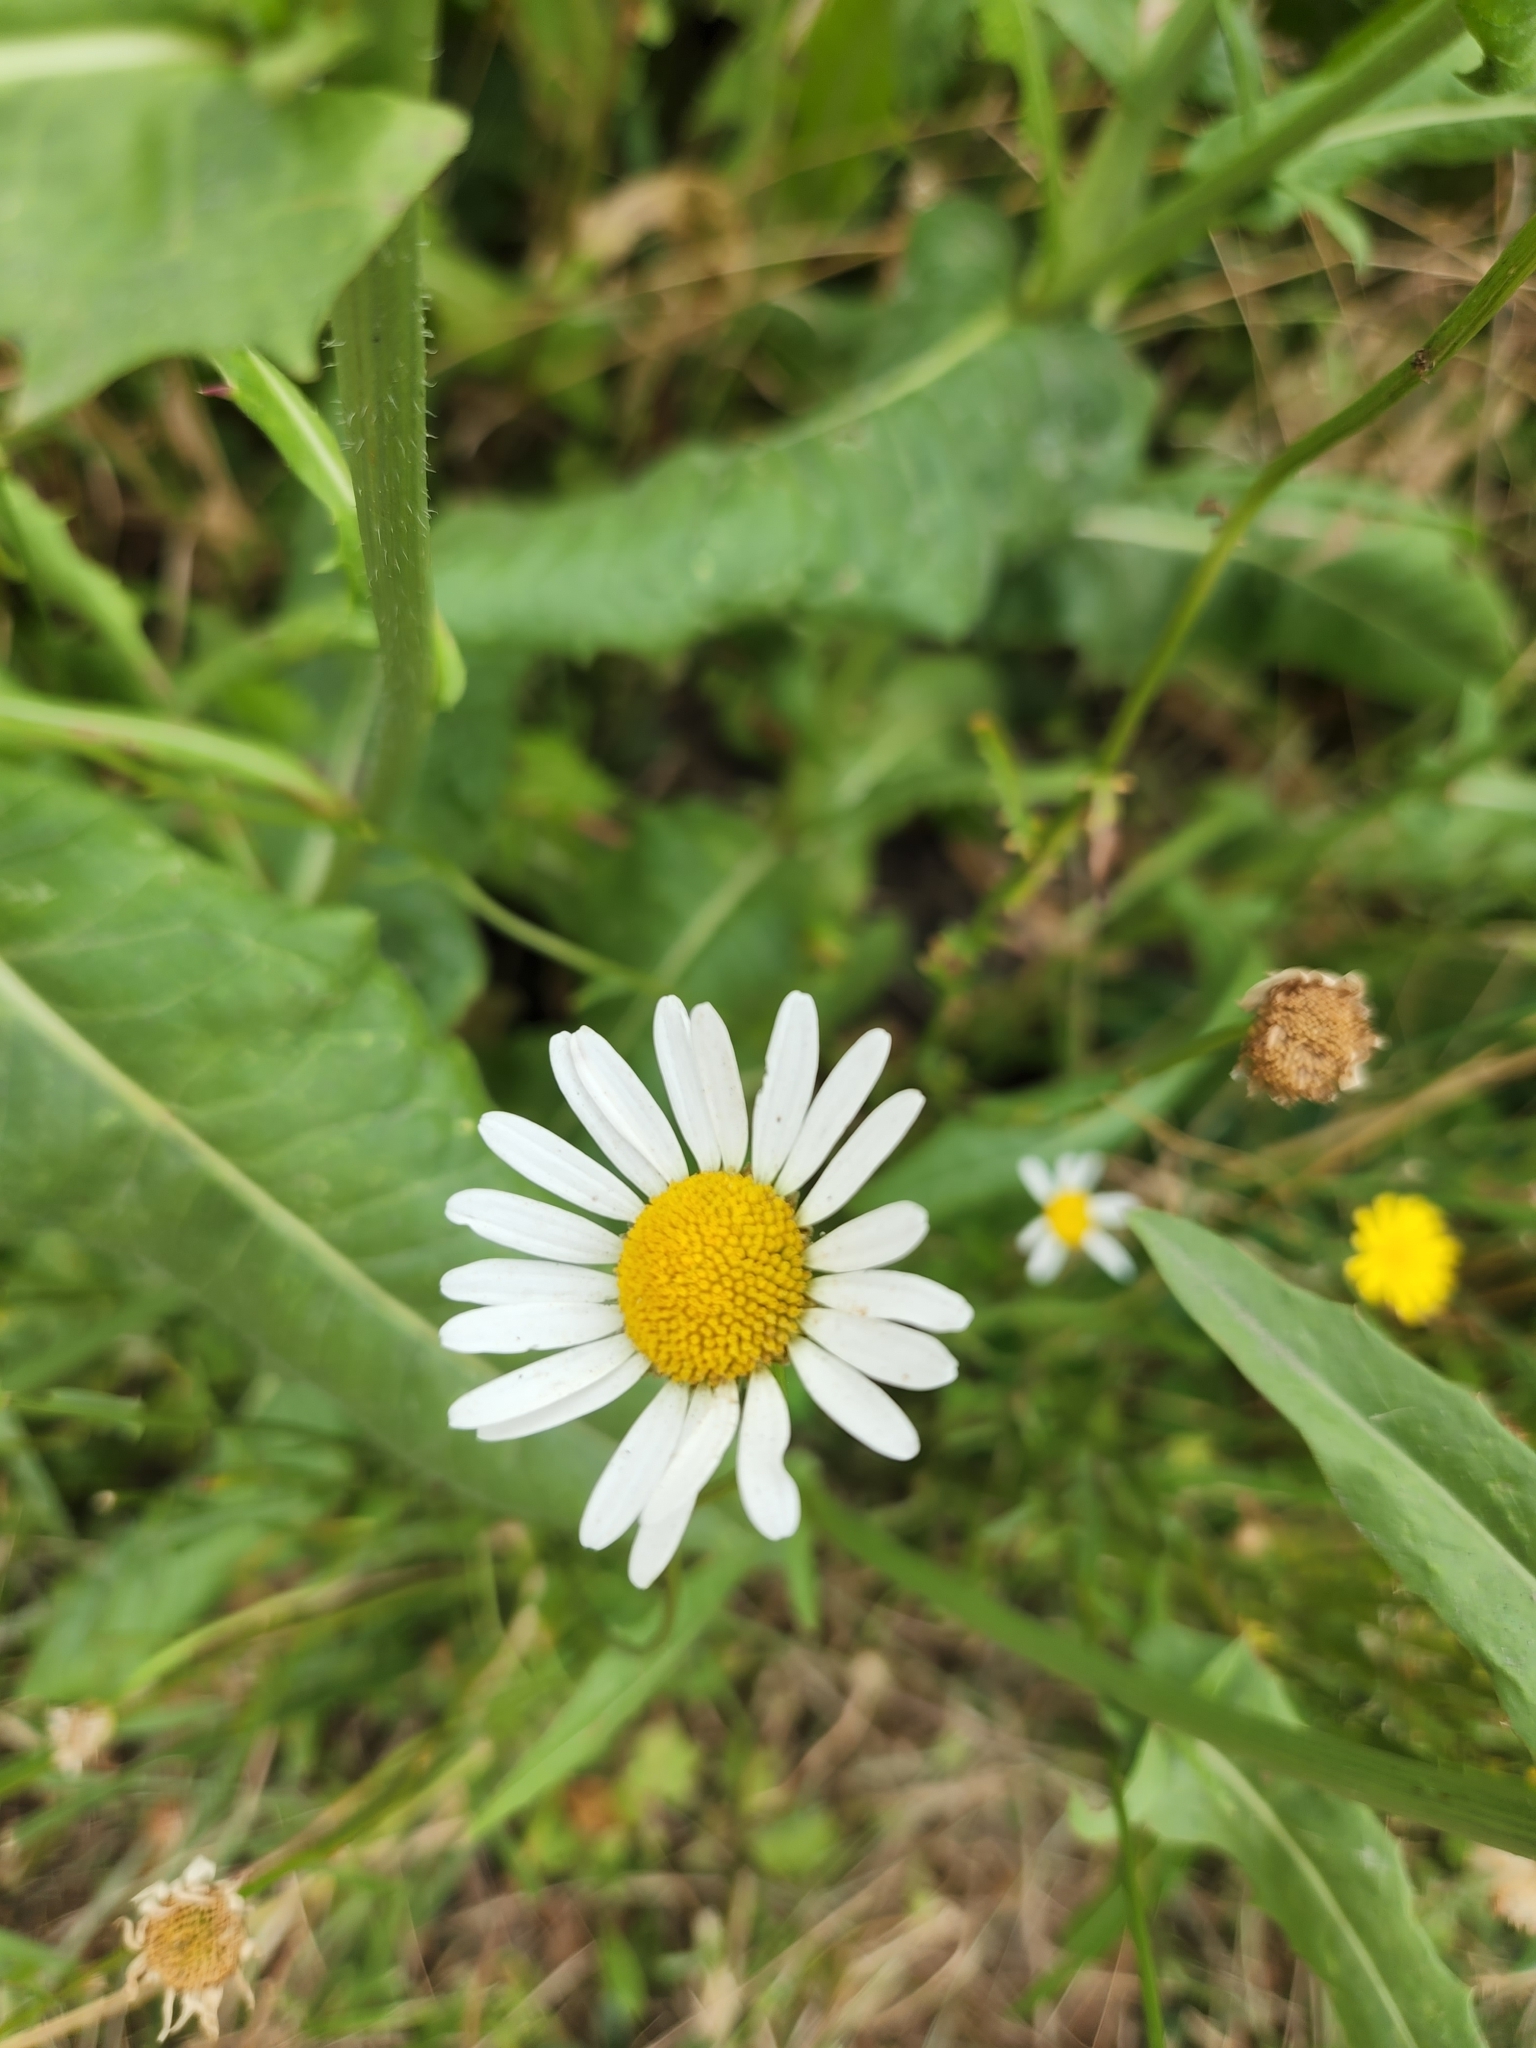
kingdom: Plantae
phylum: Tracheophyta
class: Magnoliopsida
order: Asterales
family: Asteraceae
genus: Leucanthemum
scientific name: Leucanthemum vulgare
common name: Oxeye daisy
